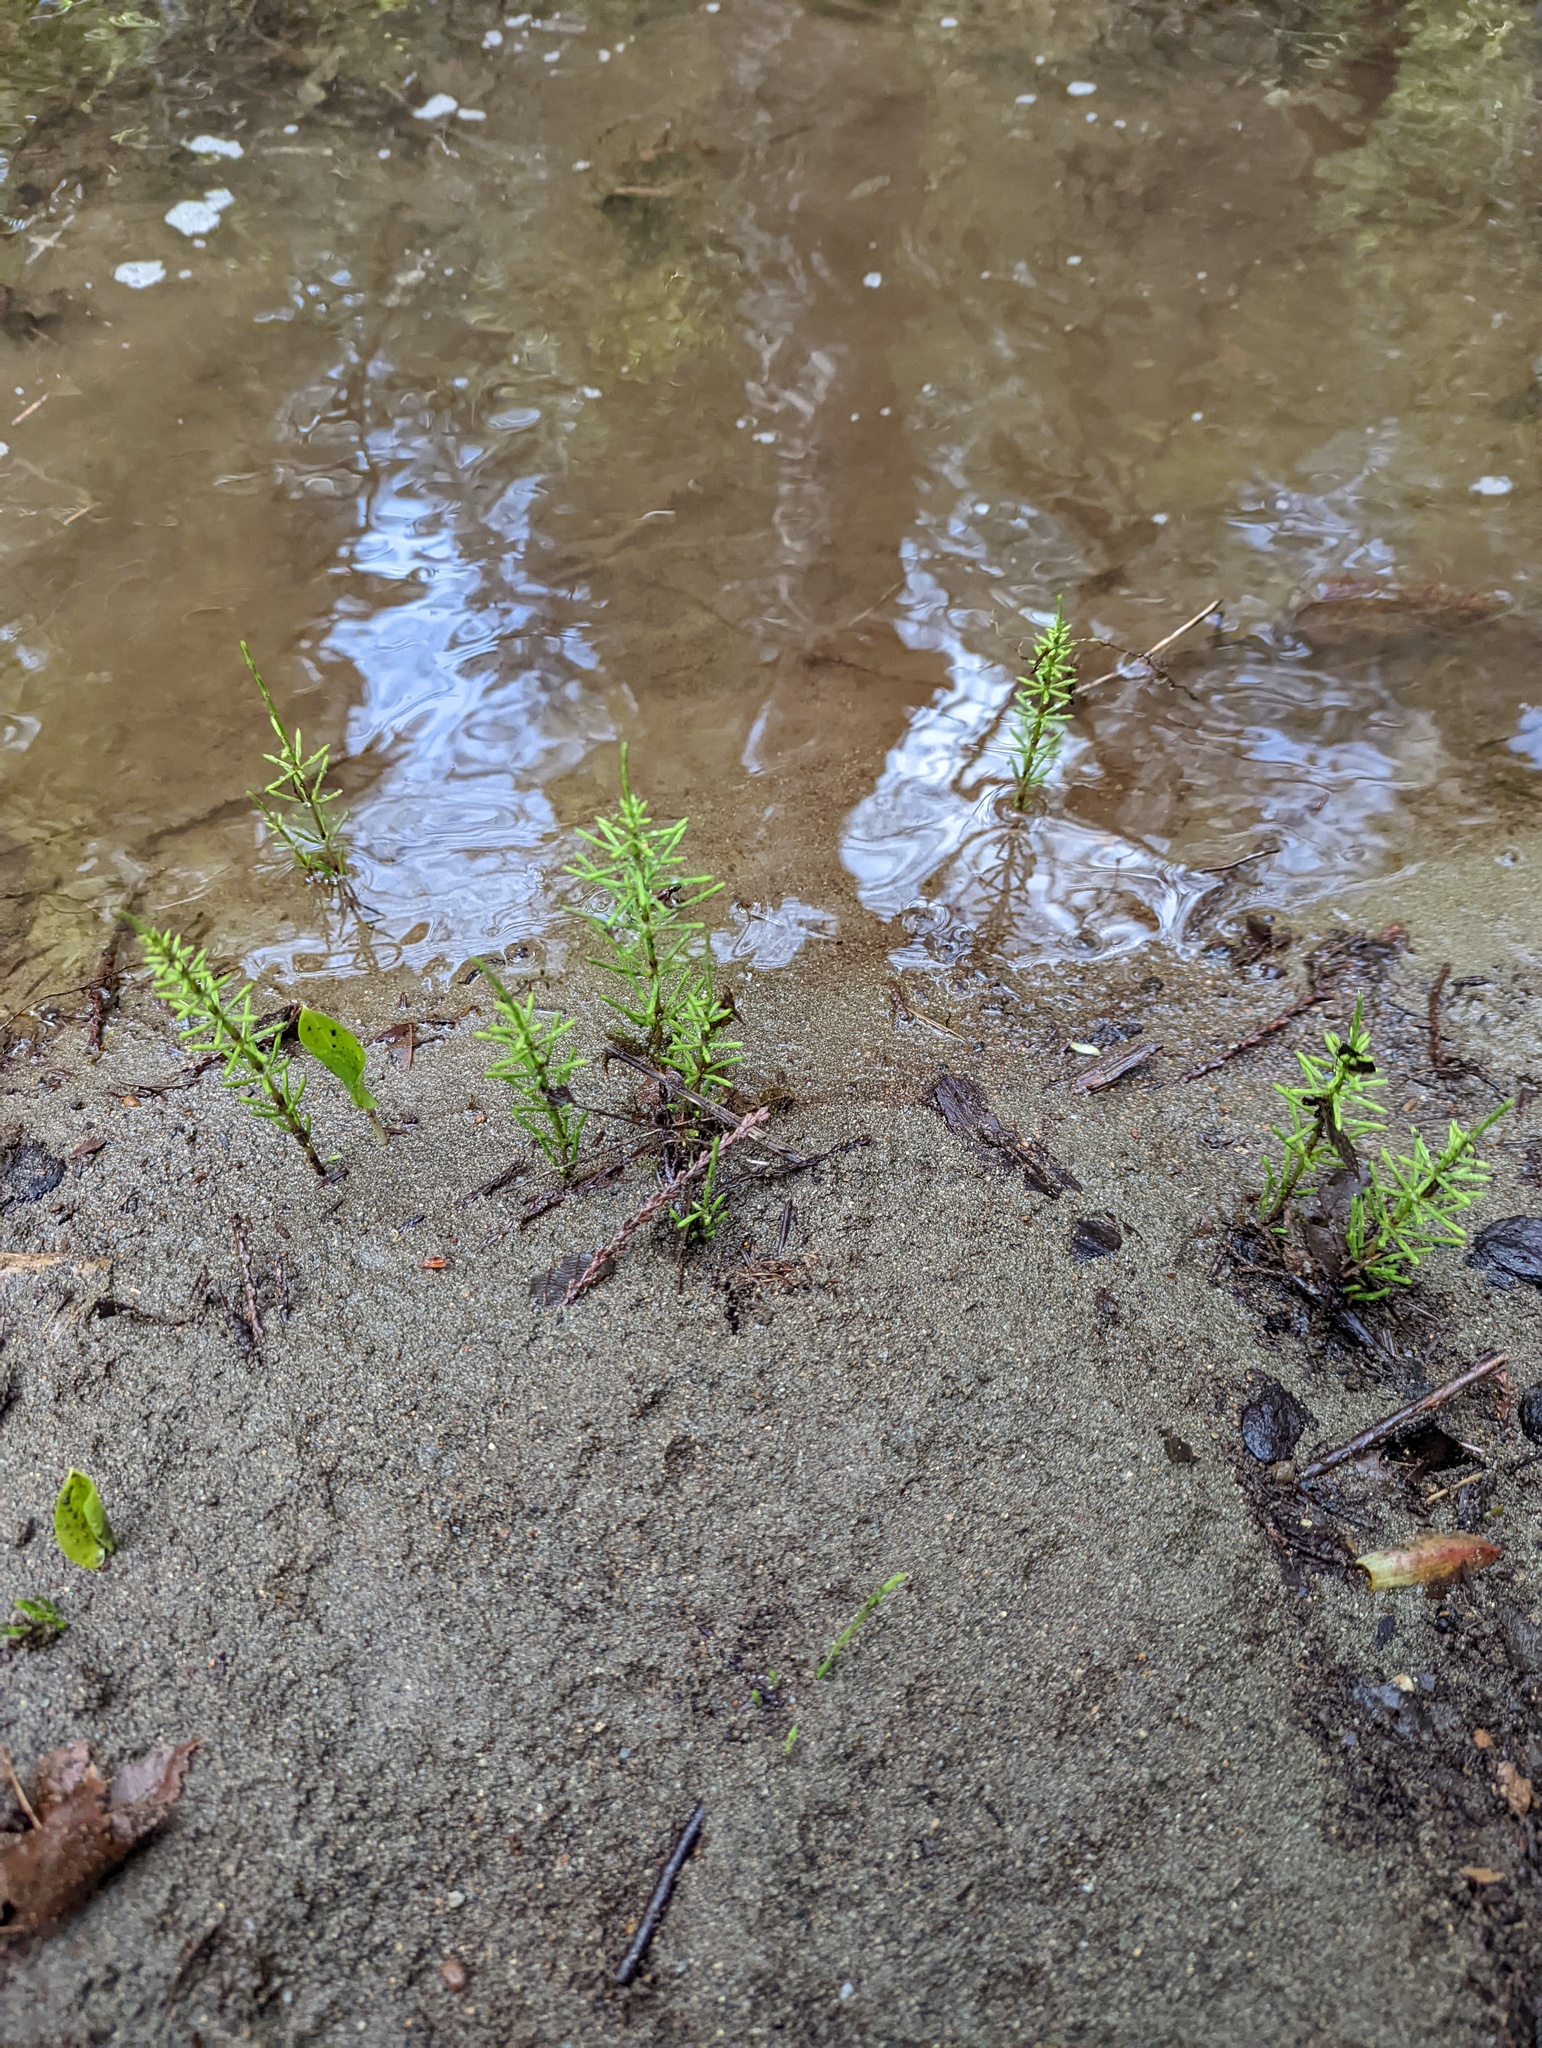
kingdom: Plantae
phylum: Tracheophyta
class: Polypodiopsida
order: Equisetales
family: Equisetaceae
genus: Equisetum
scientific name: Equisetum arvense
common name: Field horsetail
